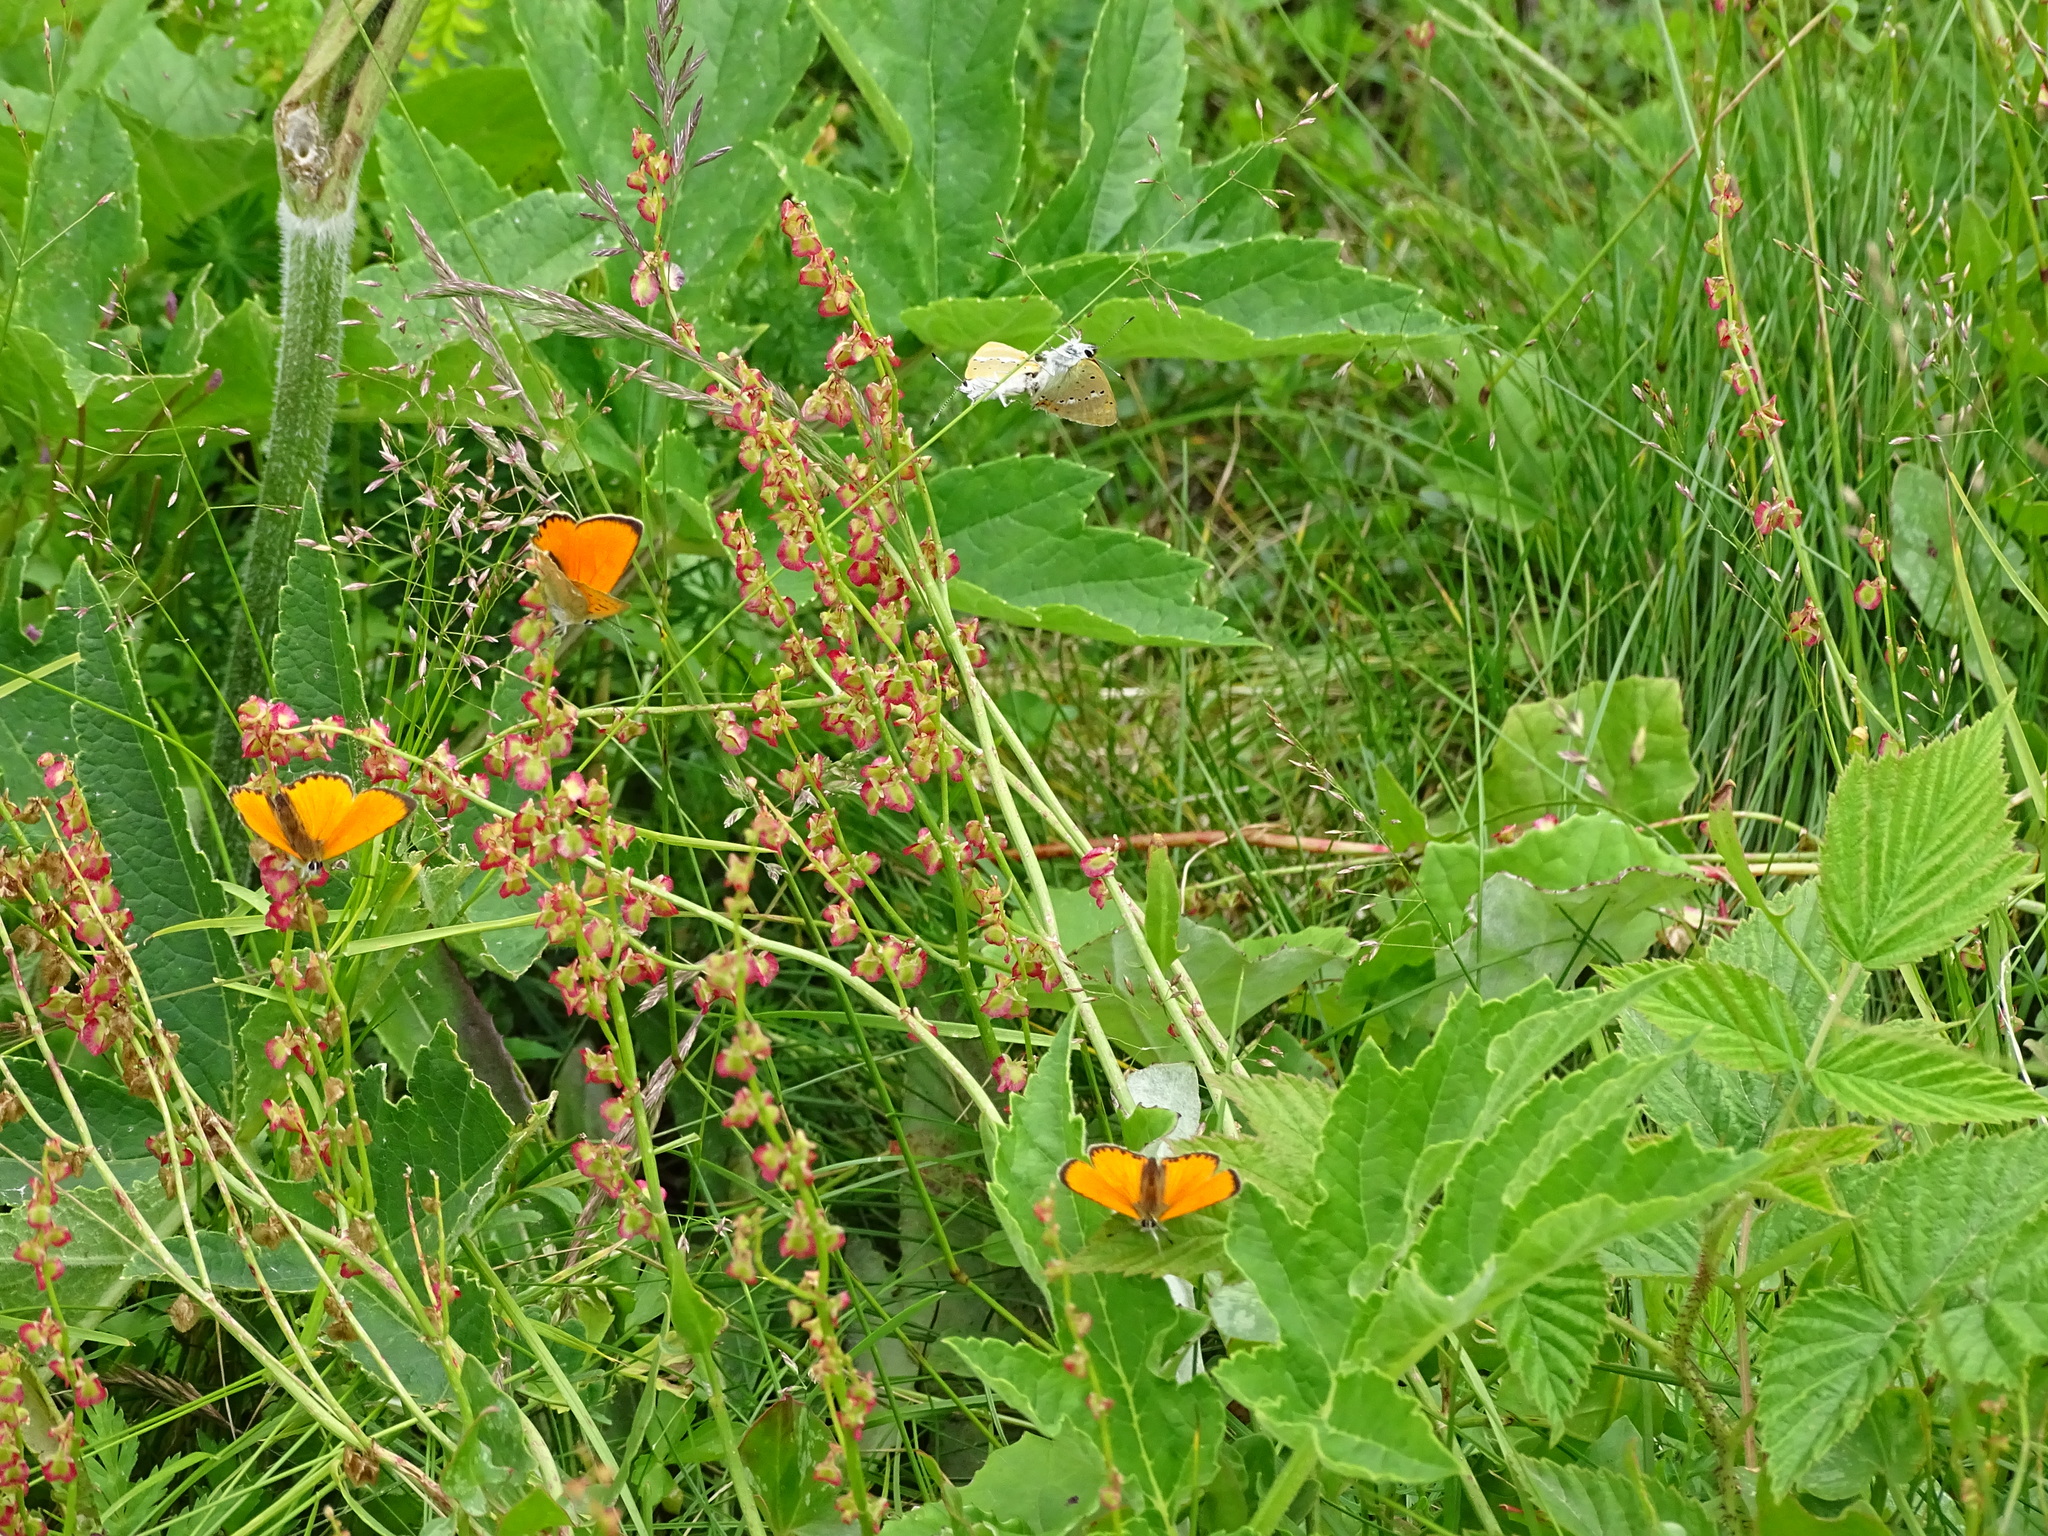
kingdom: Animalia
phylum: Arthropoda
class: Insecta
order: Lepidoptera
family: Lycaenidae
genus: Lycaena
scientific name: Lycaena virgaureae
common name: Scarce copper
